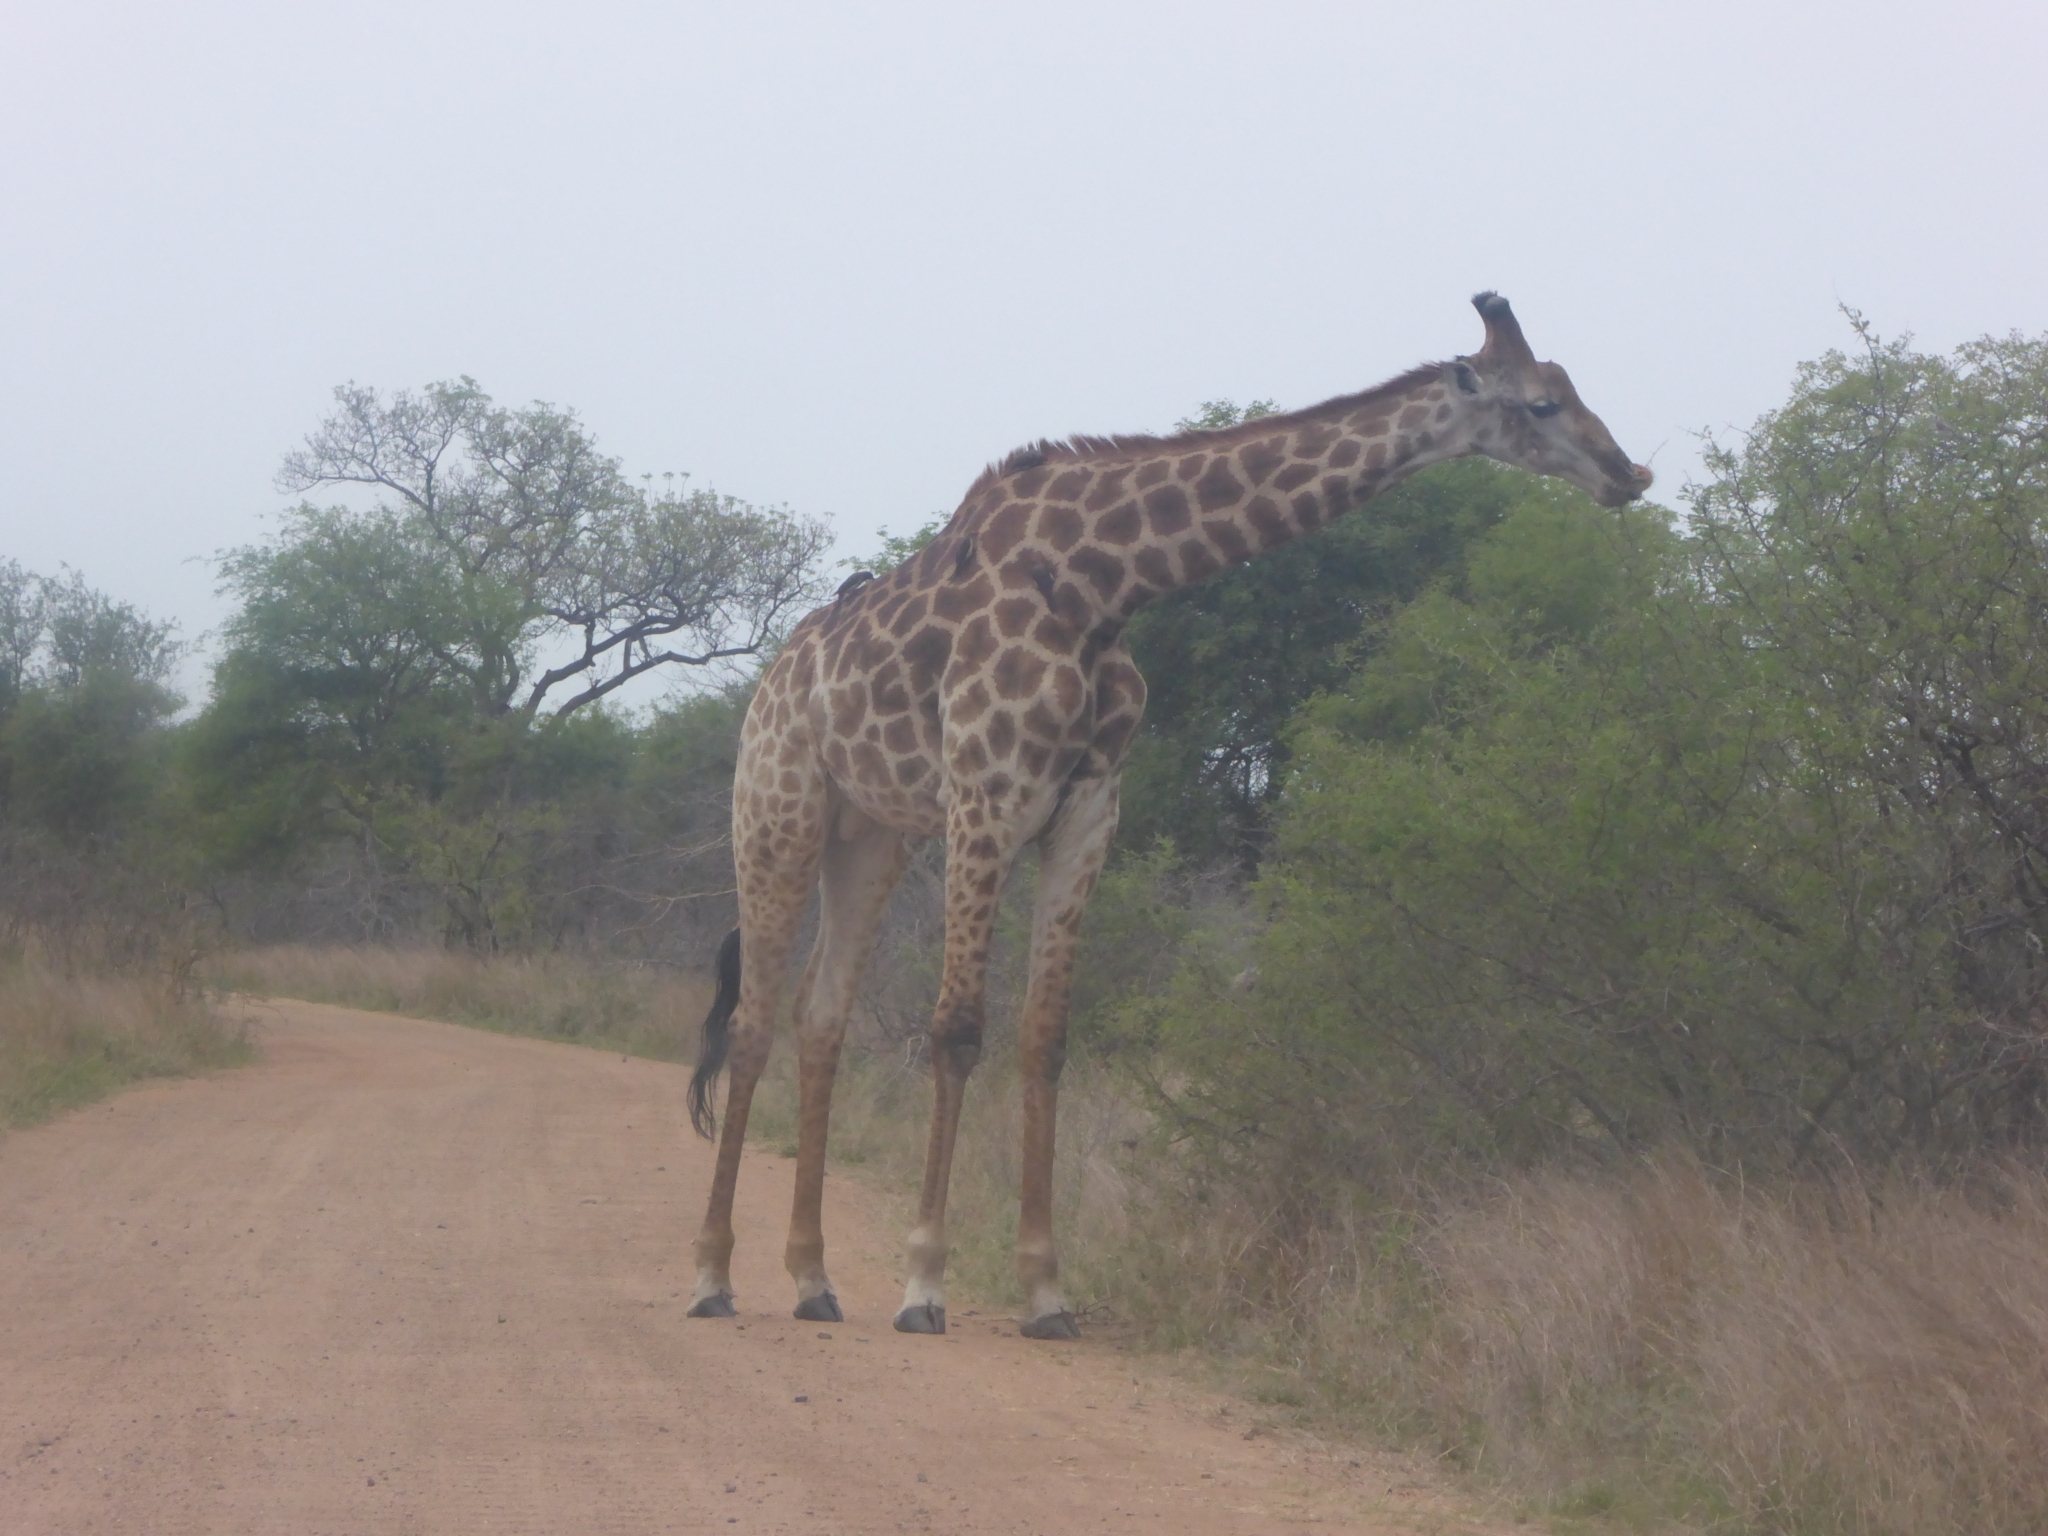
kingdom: Animalia
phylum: Chordata
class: Mammalia
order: Artiodactyla
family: Giraffidae
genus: Giraffa
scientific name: Giraffa giraffa
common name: Southern giraffe
